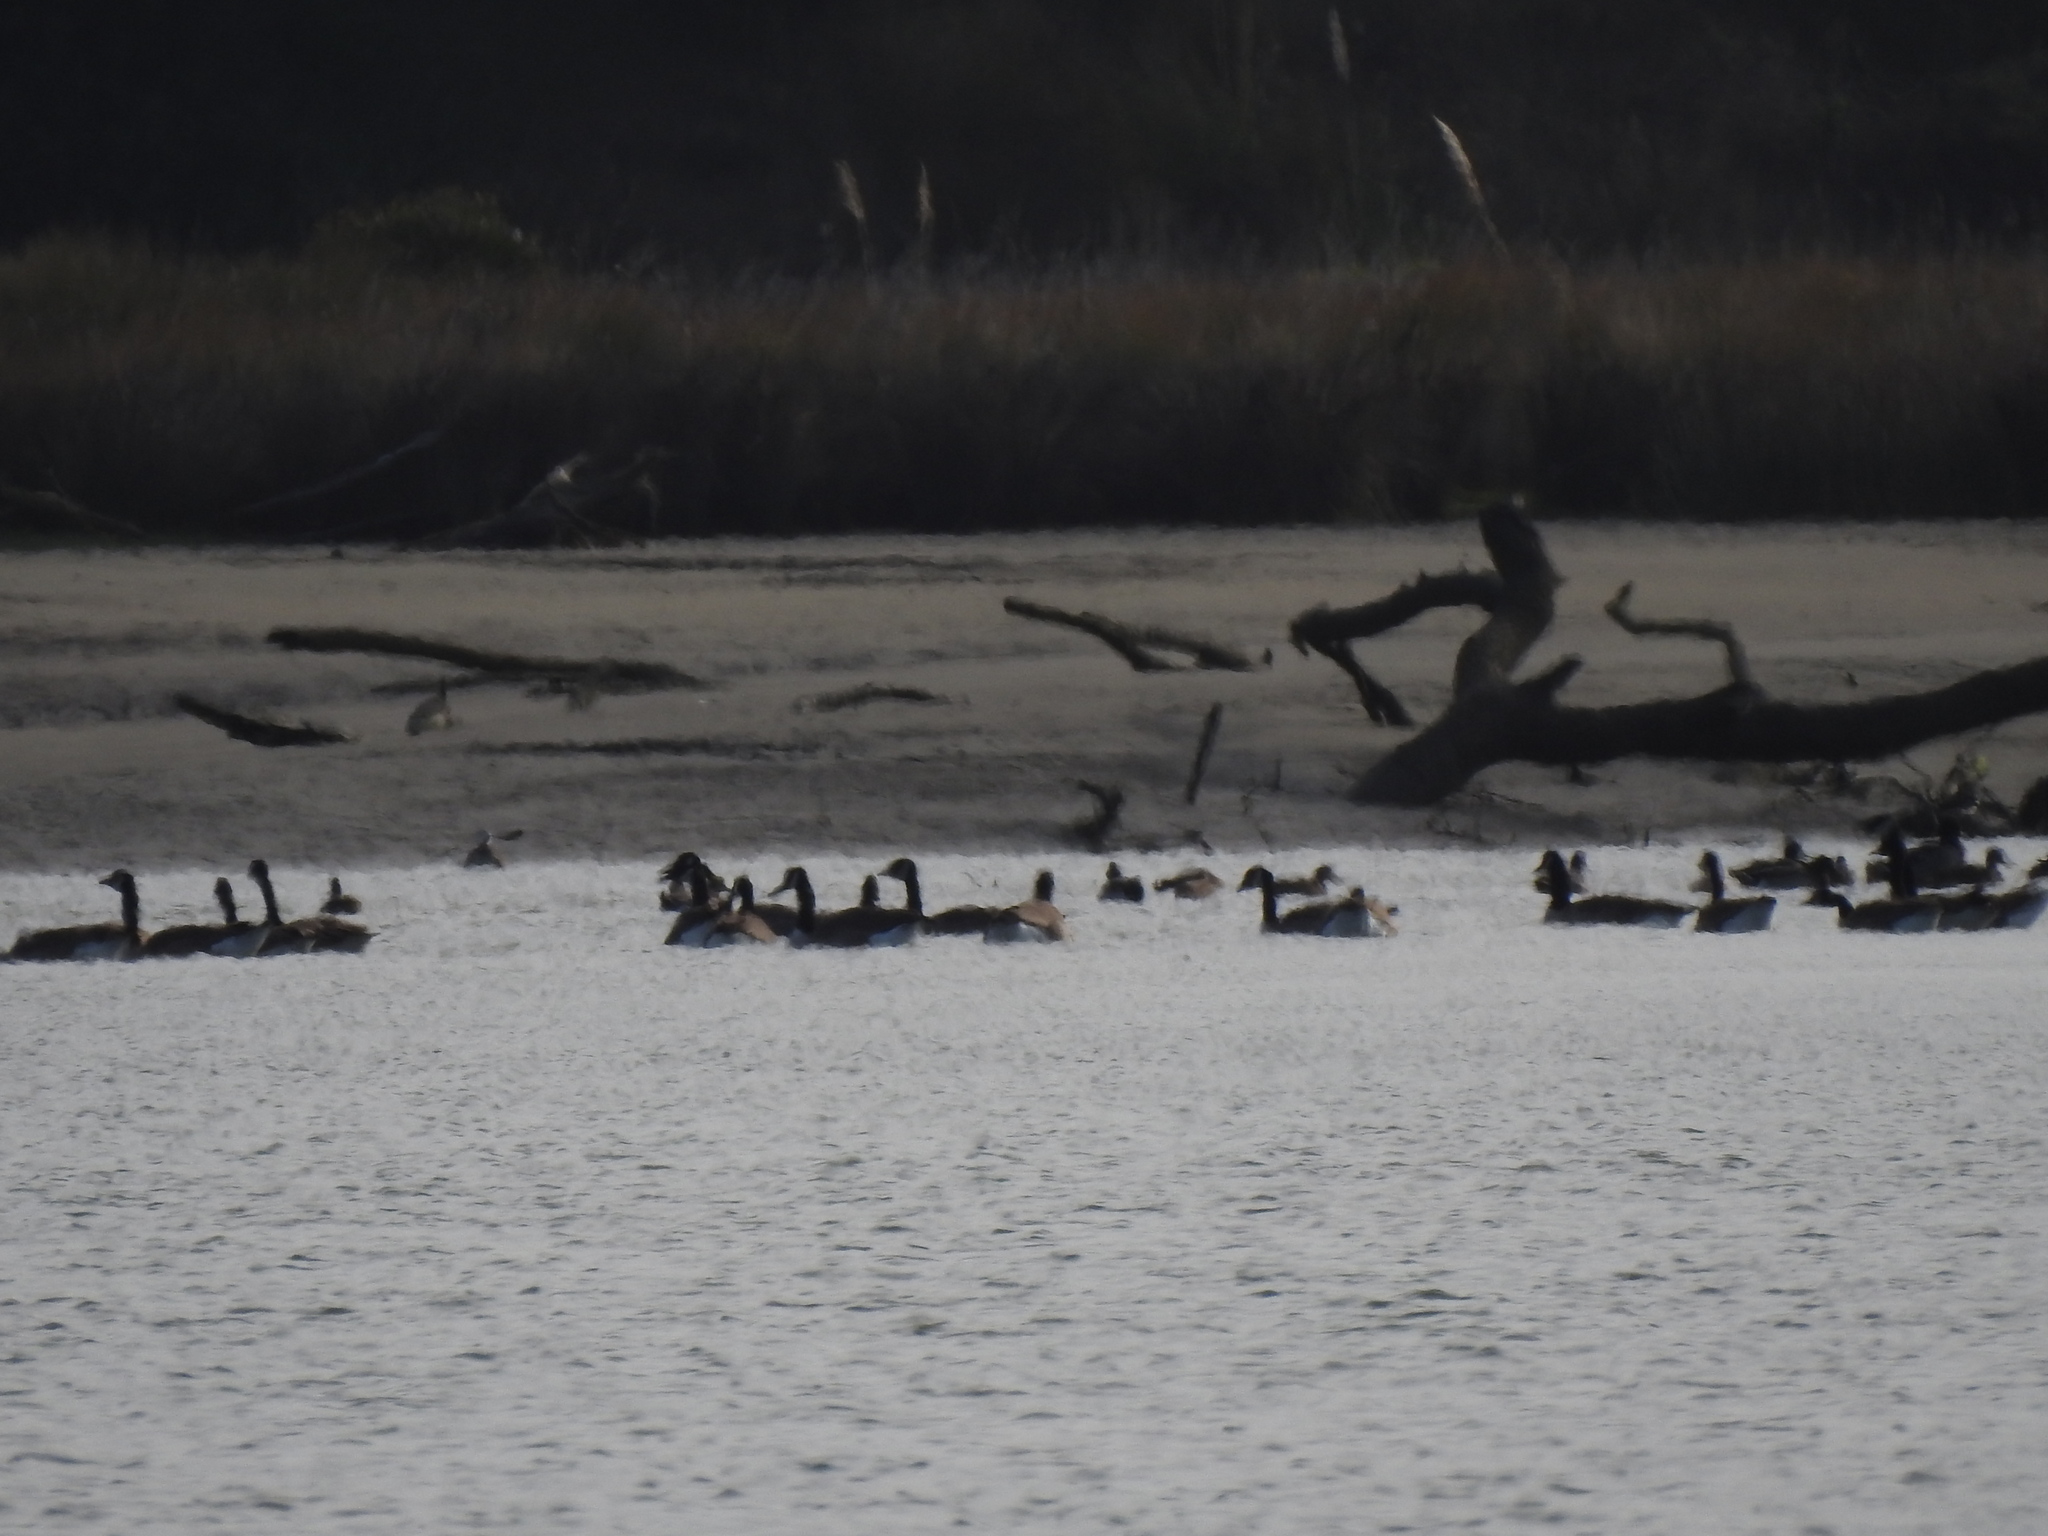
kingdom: Animalia
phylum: Chordata
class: Aves
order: Anseriformes
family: Anatidae
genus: Branta
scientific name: Branta canadensis
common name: Canada goose
